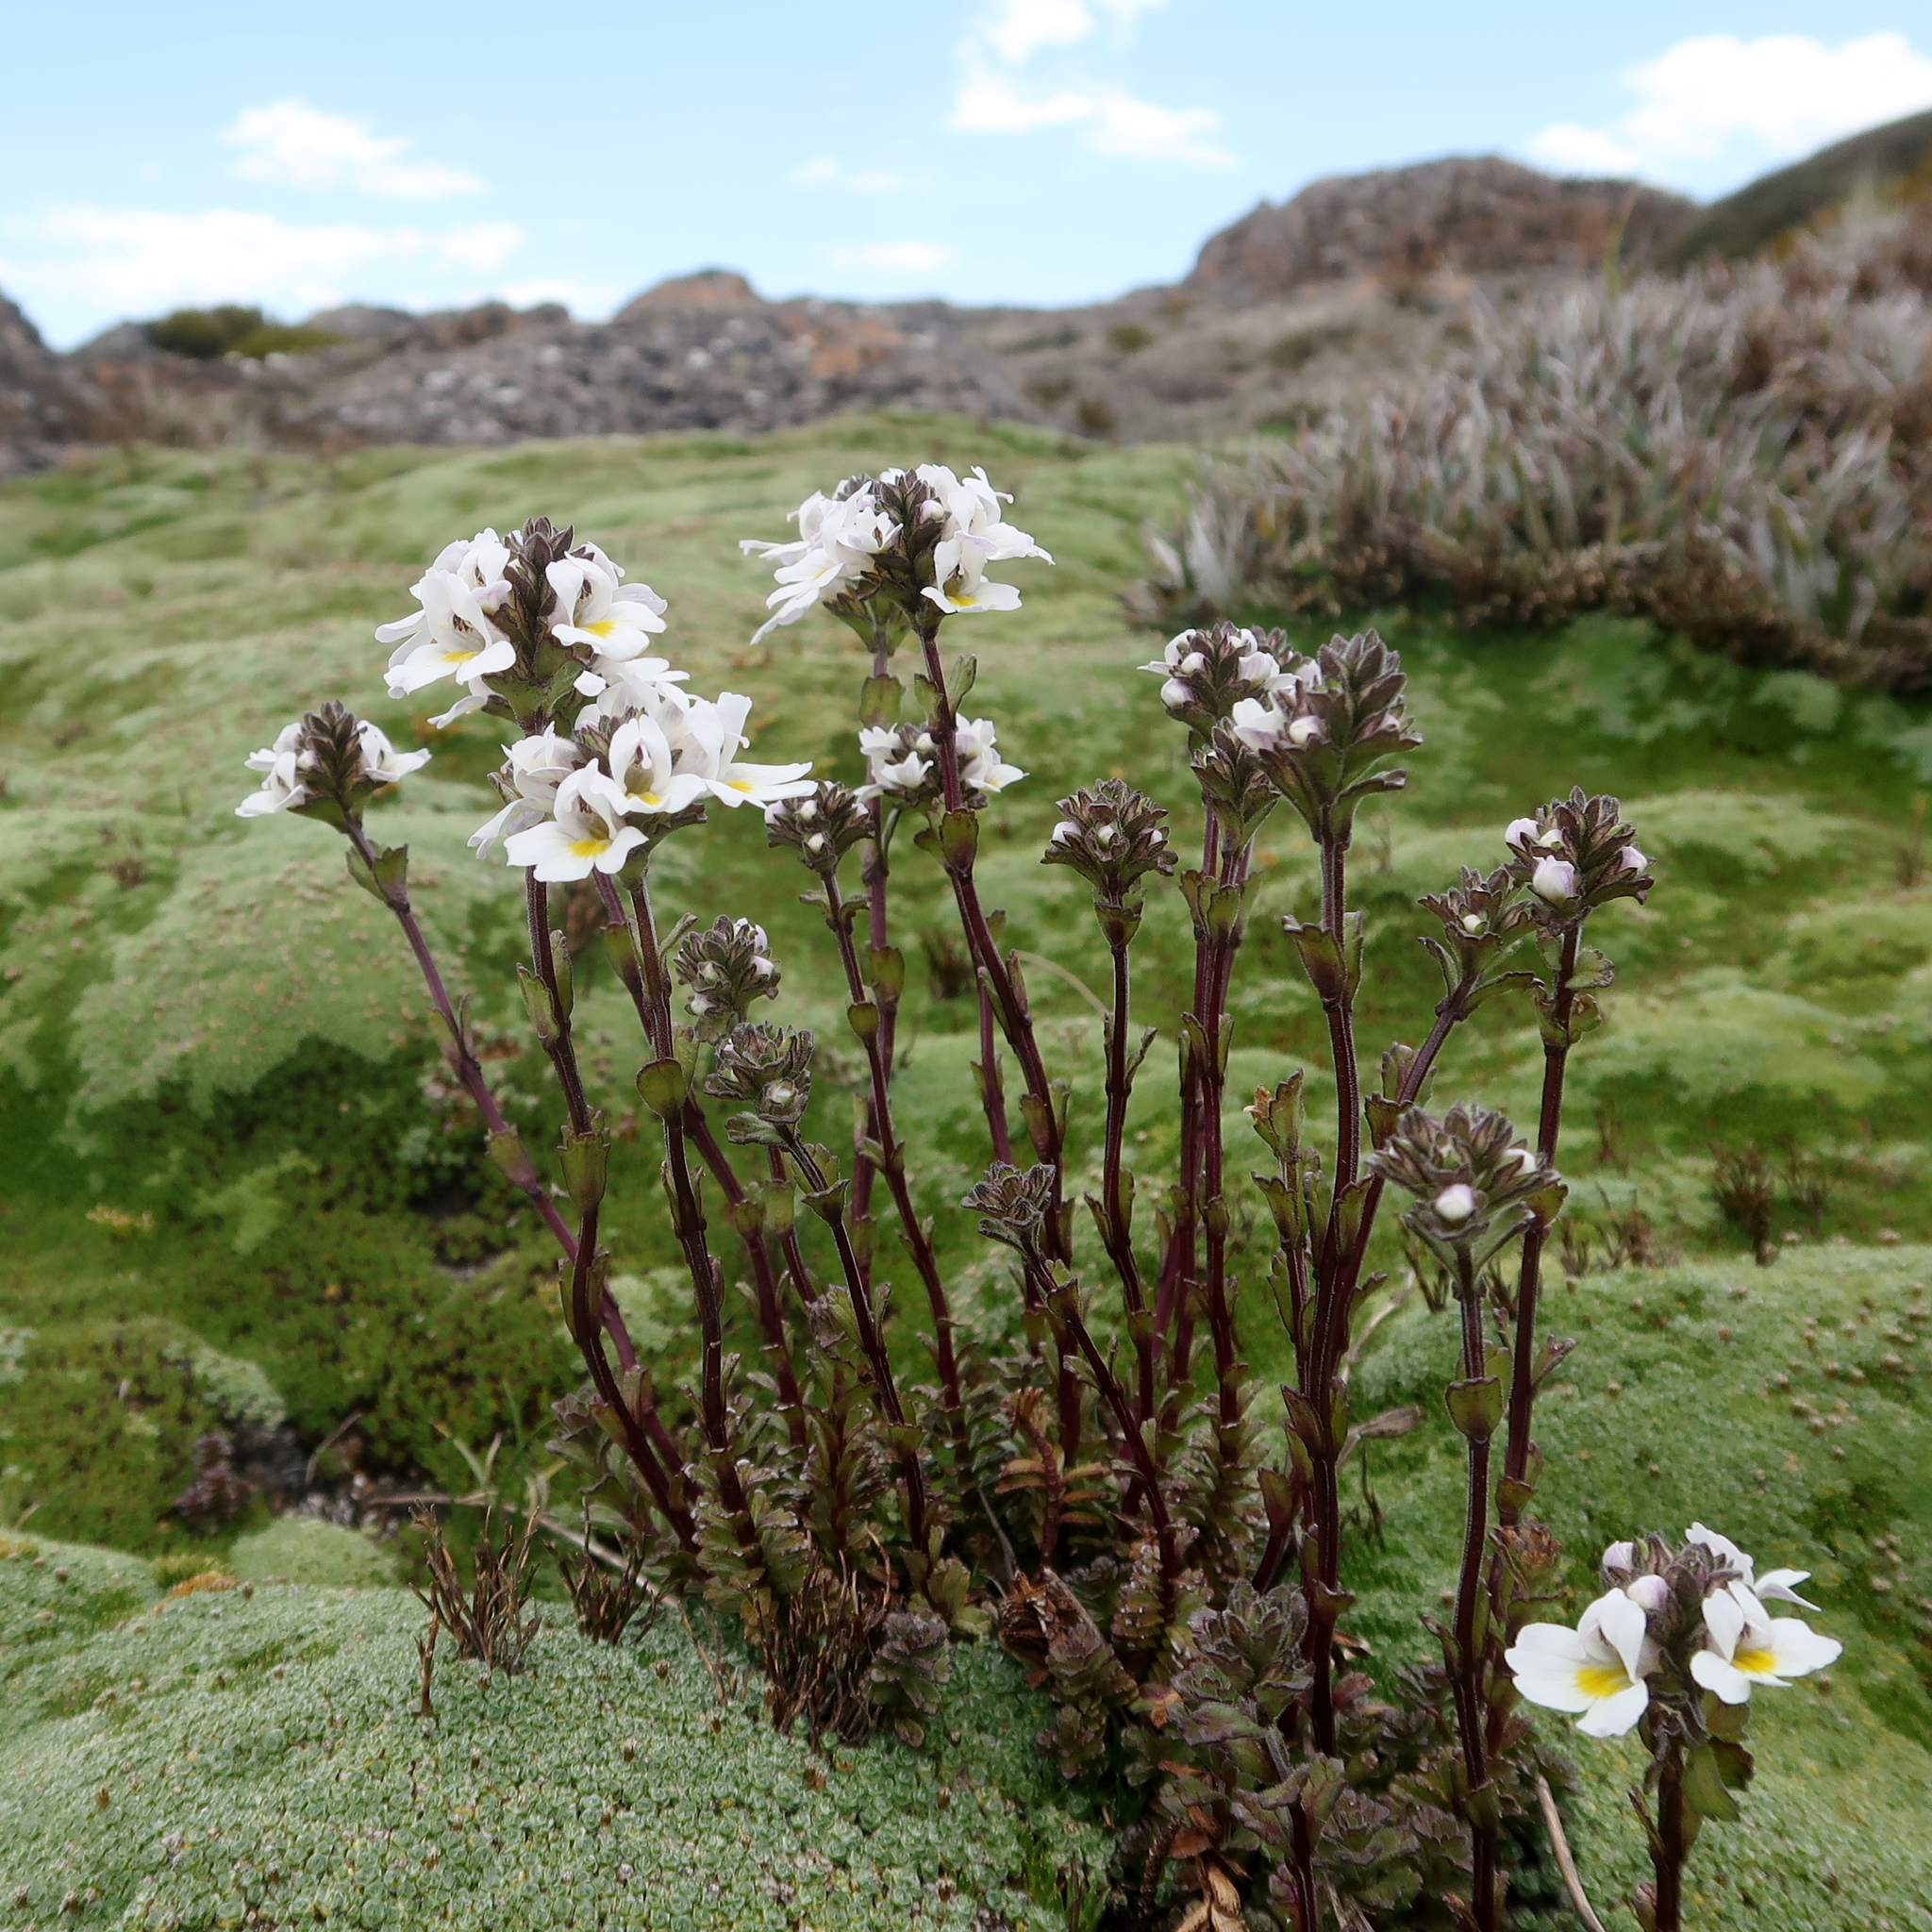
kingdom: Plantae
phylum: Tracheophyta
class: Magnoliopsida
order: Lamiales
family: Orobanchaceae
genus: Euphrasia
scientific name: Euphrasia collina
